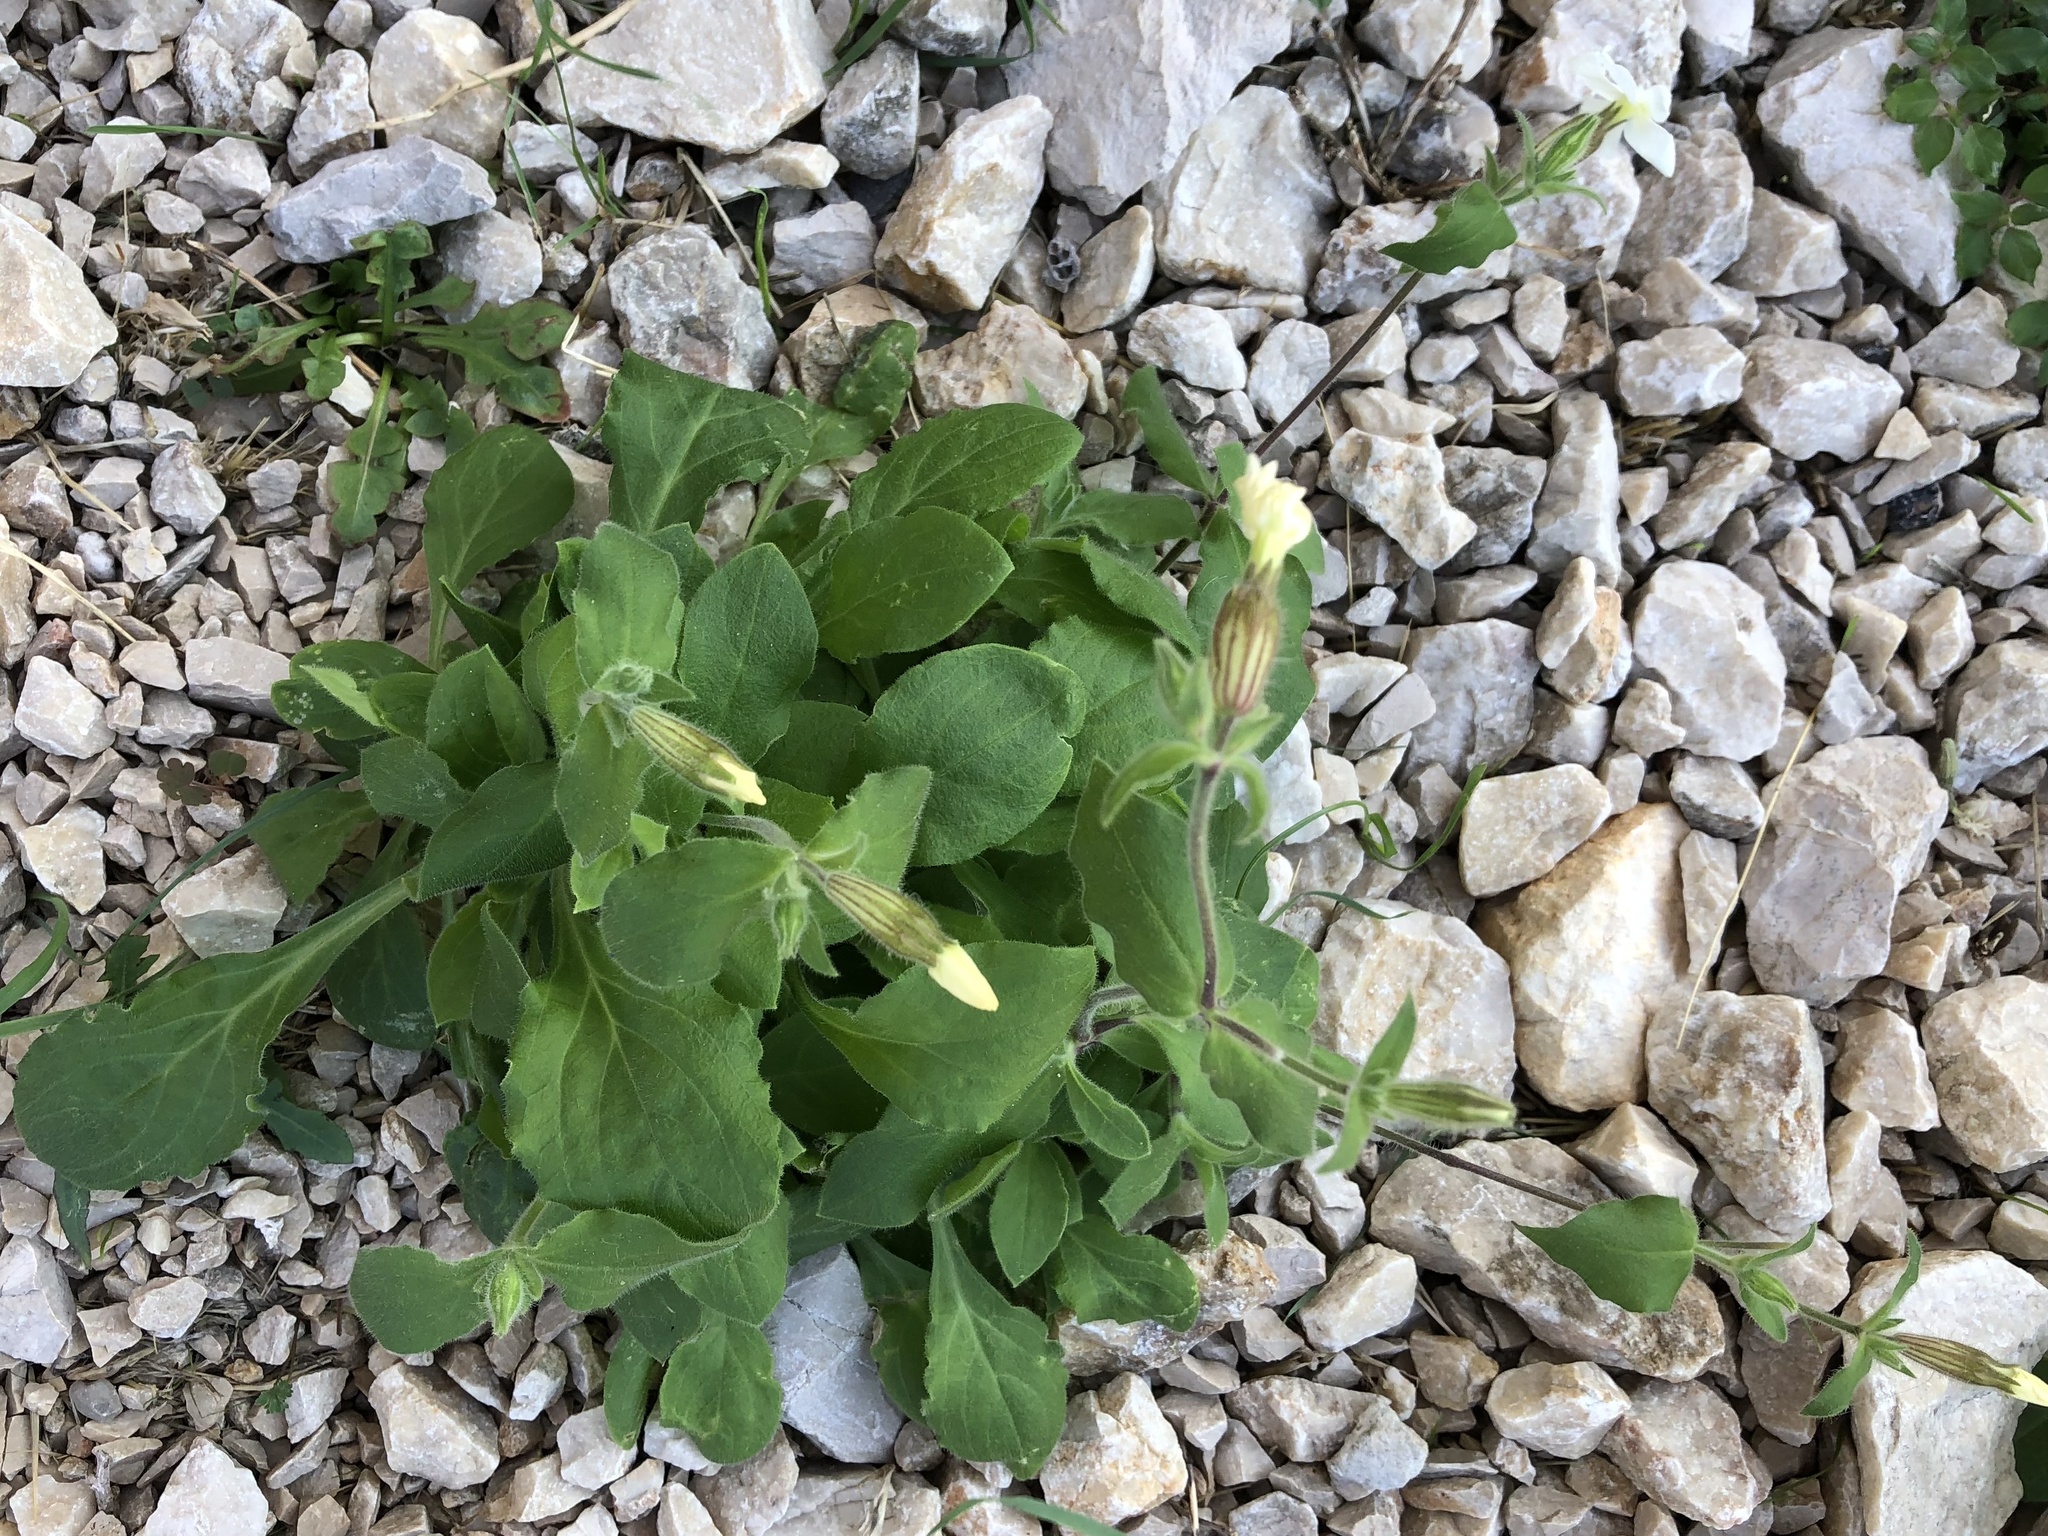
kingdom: Plantae
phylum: Tracheophyta
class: Magnoliopsida
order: Caryophyllales
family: Caryophyllaceae
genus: Silene
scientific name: Silene latifolia
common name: White campion
